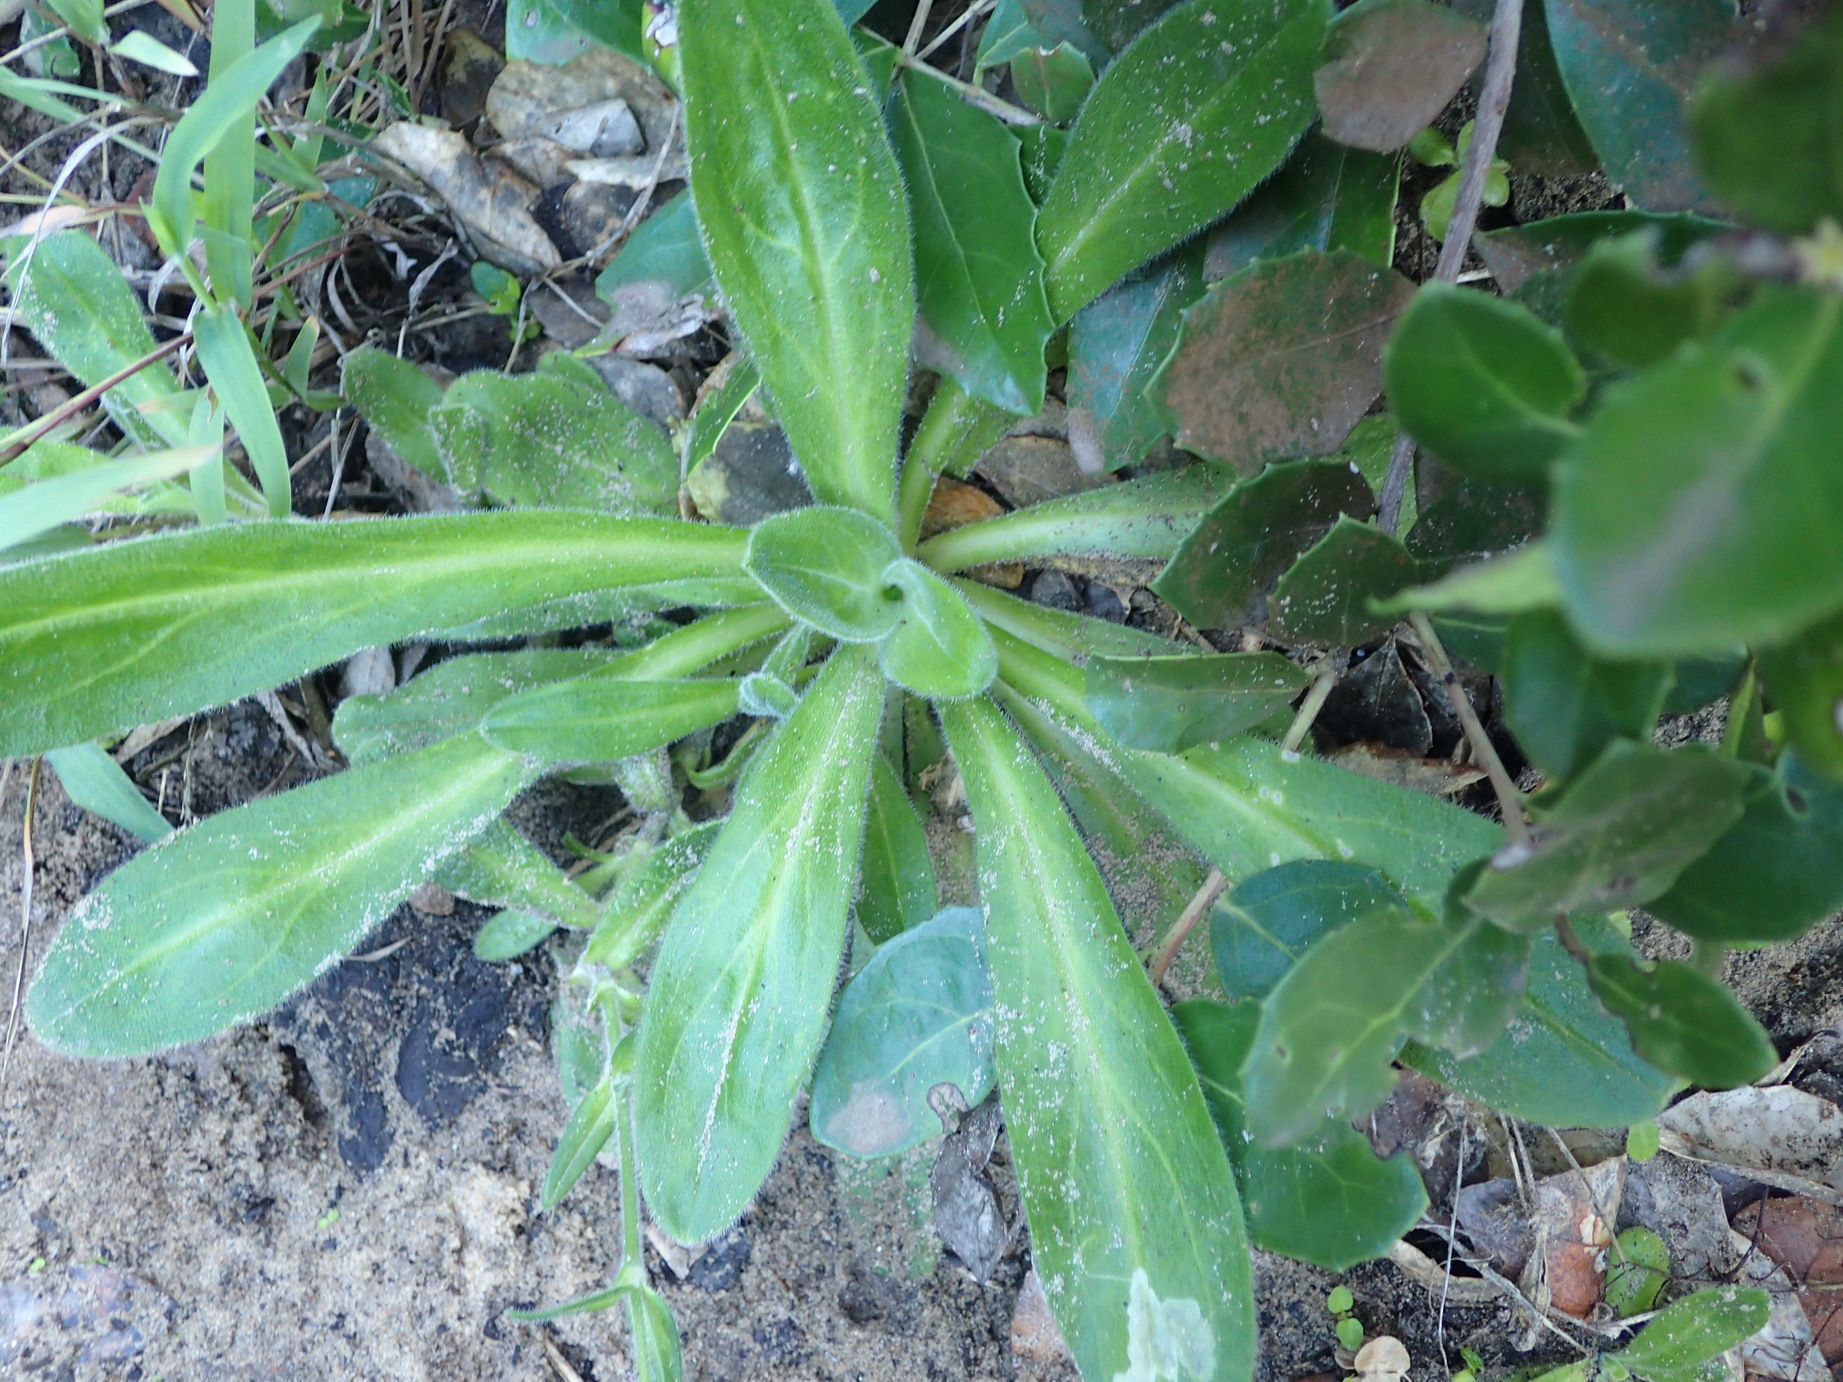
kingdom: Plantae
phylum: Tracheophyta
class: Magnoliopsida
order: Caryophyllales
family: Caryophyllaceae
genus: Silene
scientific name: Silene undulata
